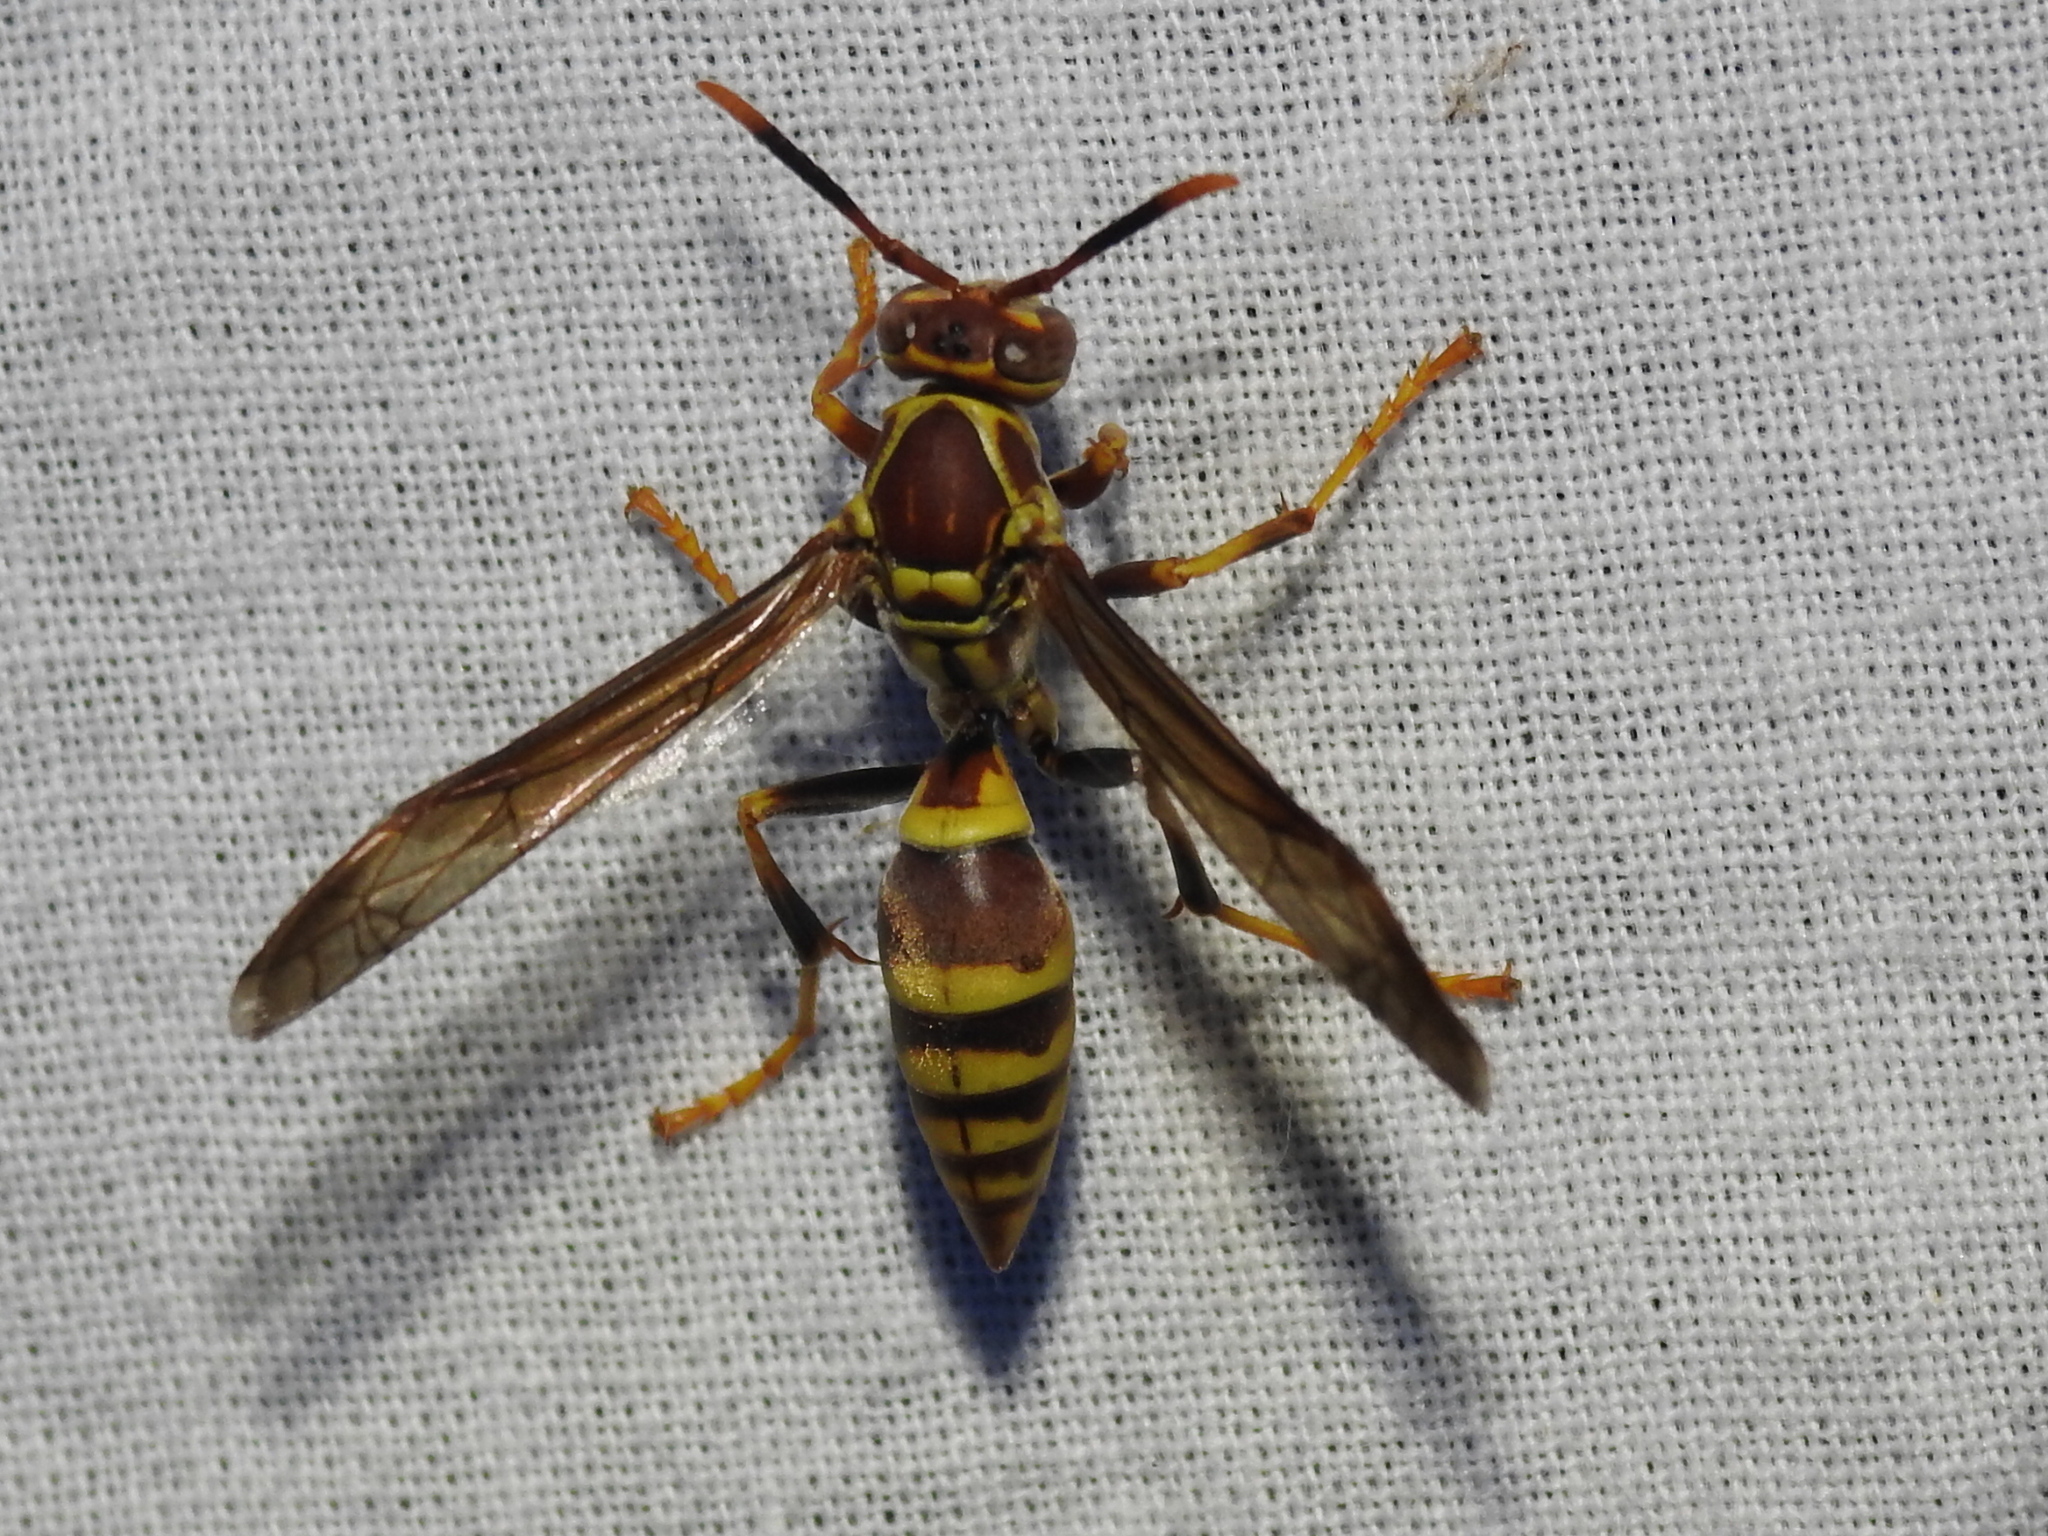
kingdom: Animalia
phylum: Arthropoda
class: Insecta
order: Hymenoptera
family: Eumenidae
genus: Polistes
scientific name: Polistes exclamans
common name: Paper wasp
